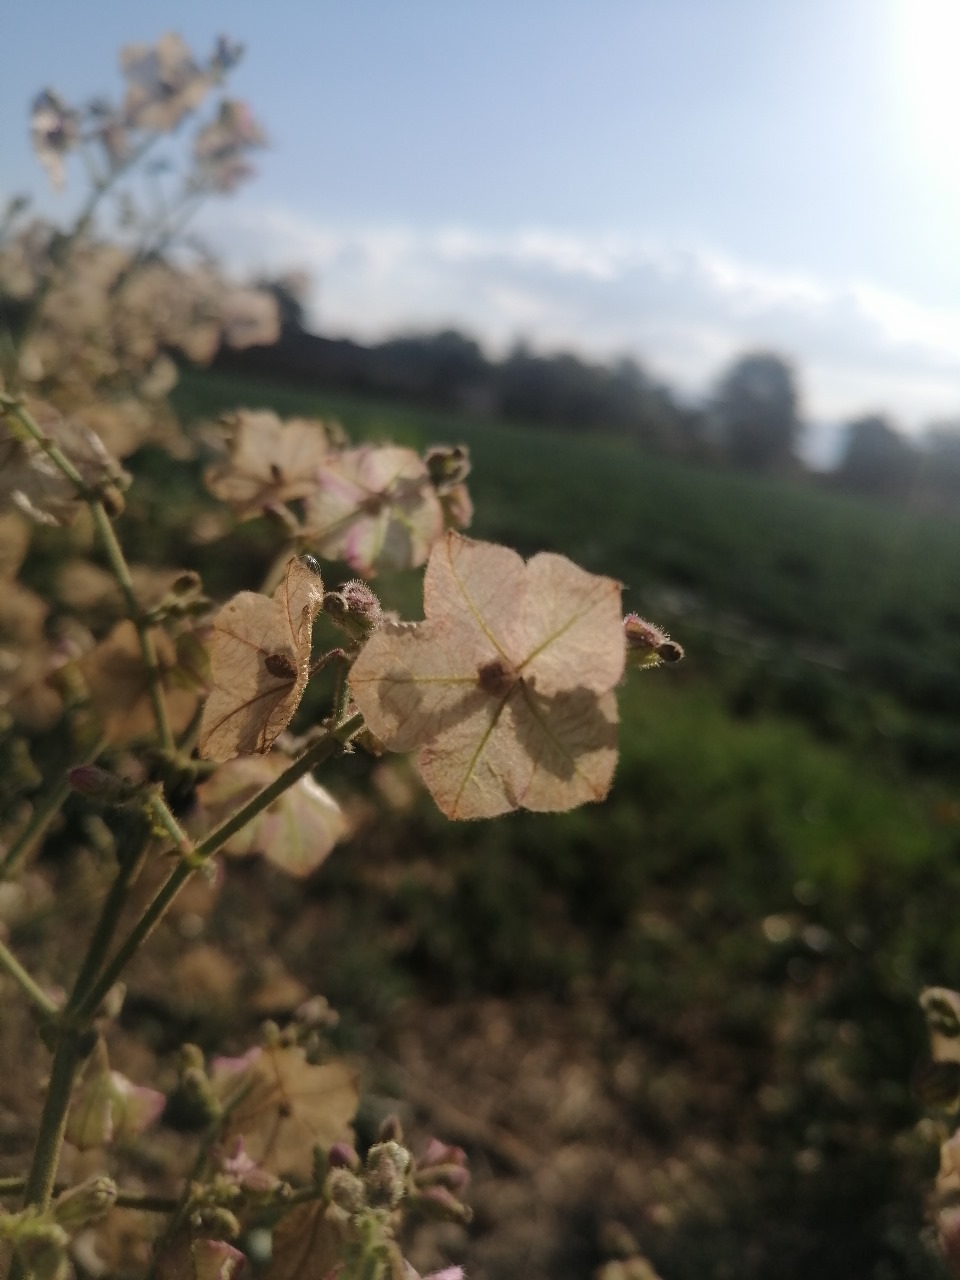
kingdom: Plantae
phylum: Tracheophyta
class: Magnoliopsida
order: Caryophyllales
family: Nyctaginaceae
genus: Mirabilis
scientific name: Mirabilis albida
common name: Hairy four-o'clock
